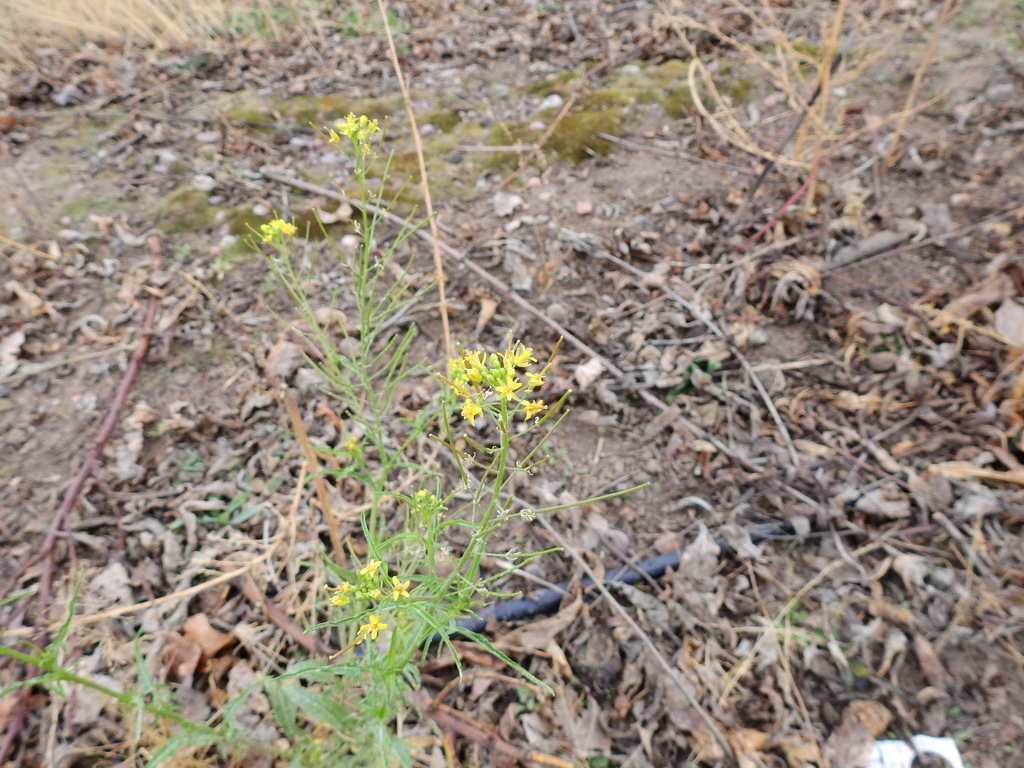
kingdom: Plantae
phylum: Tracheophyta
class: Magnoliopsida
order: Brassicales
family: Brassicaceae
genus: Sisymbrium
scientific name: Sisymbrium irio
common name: London rocket
